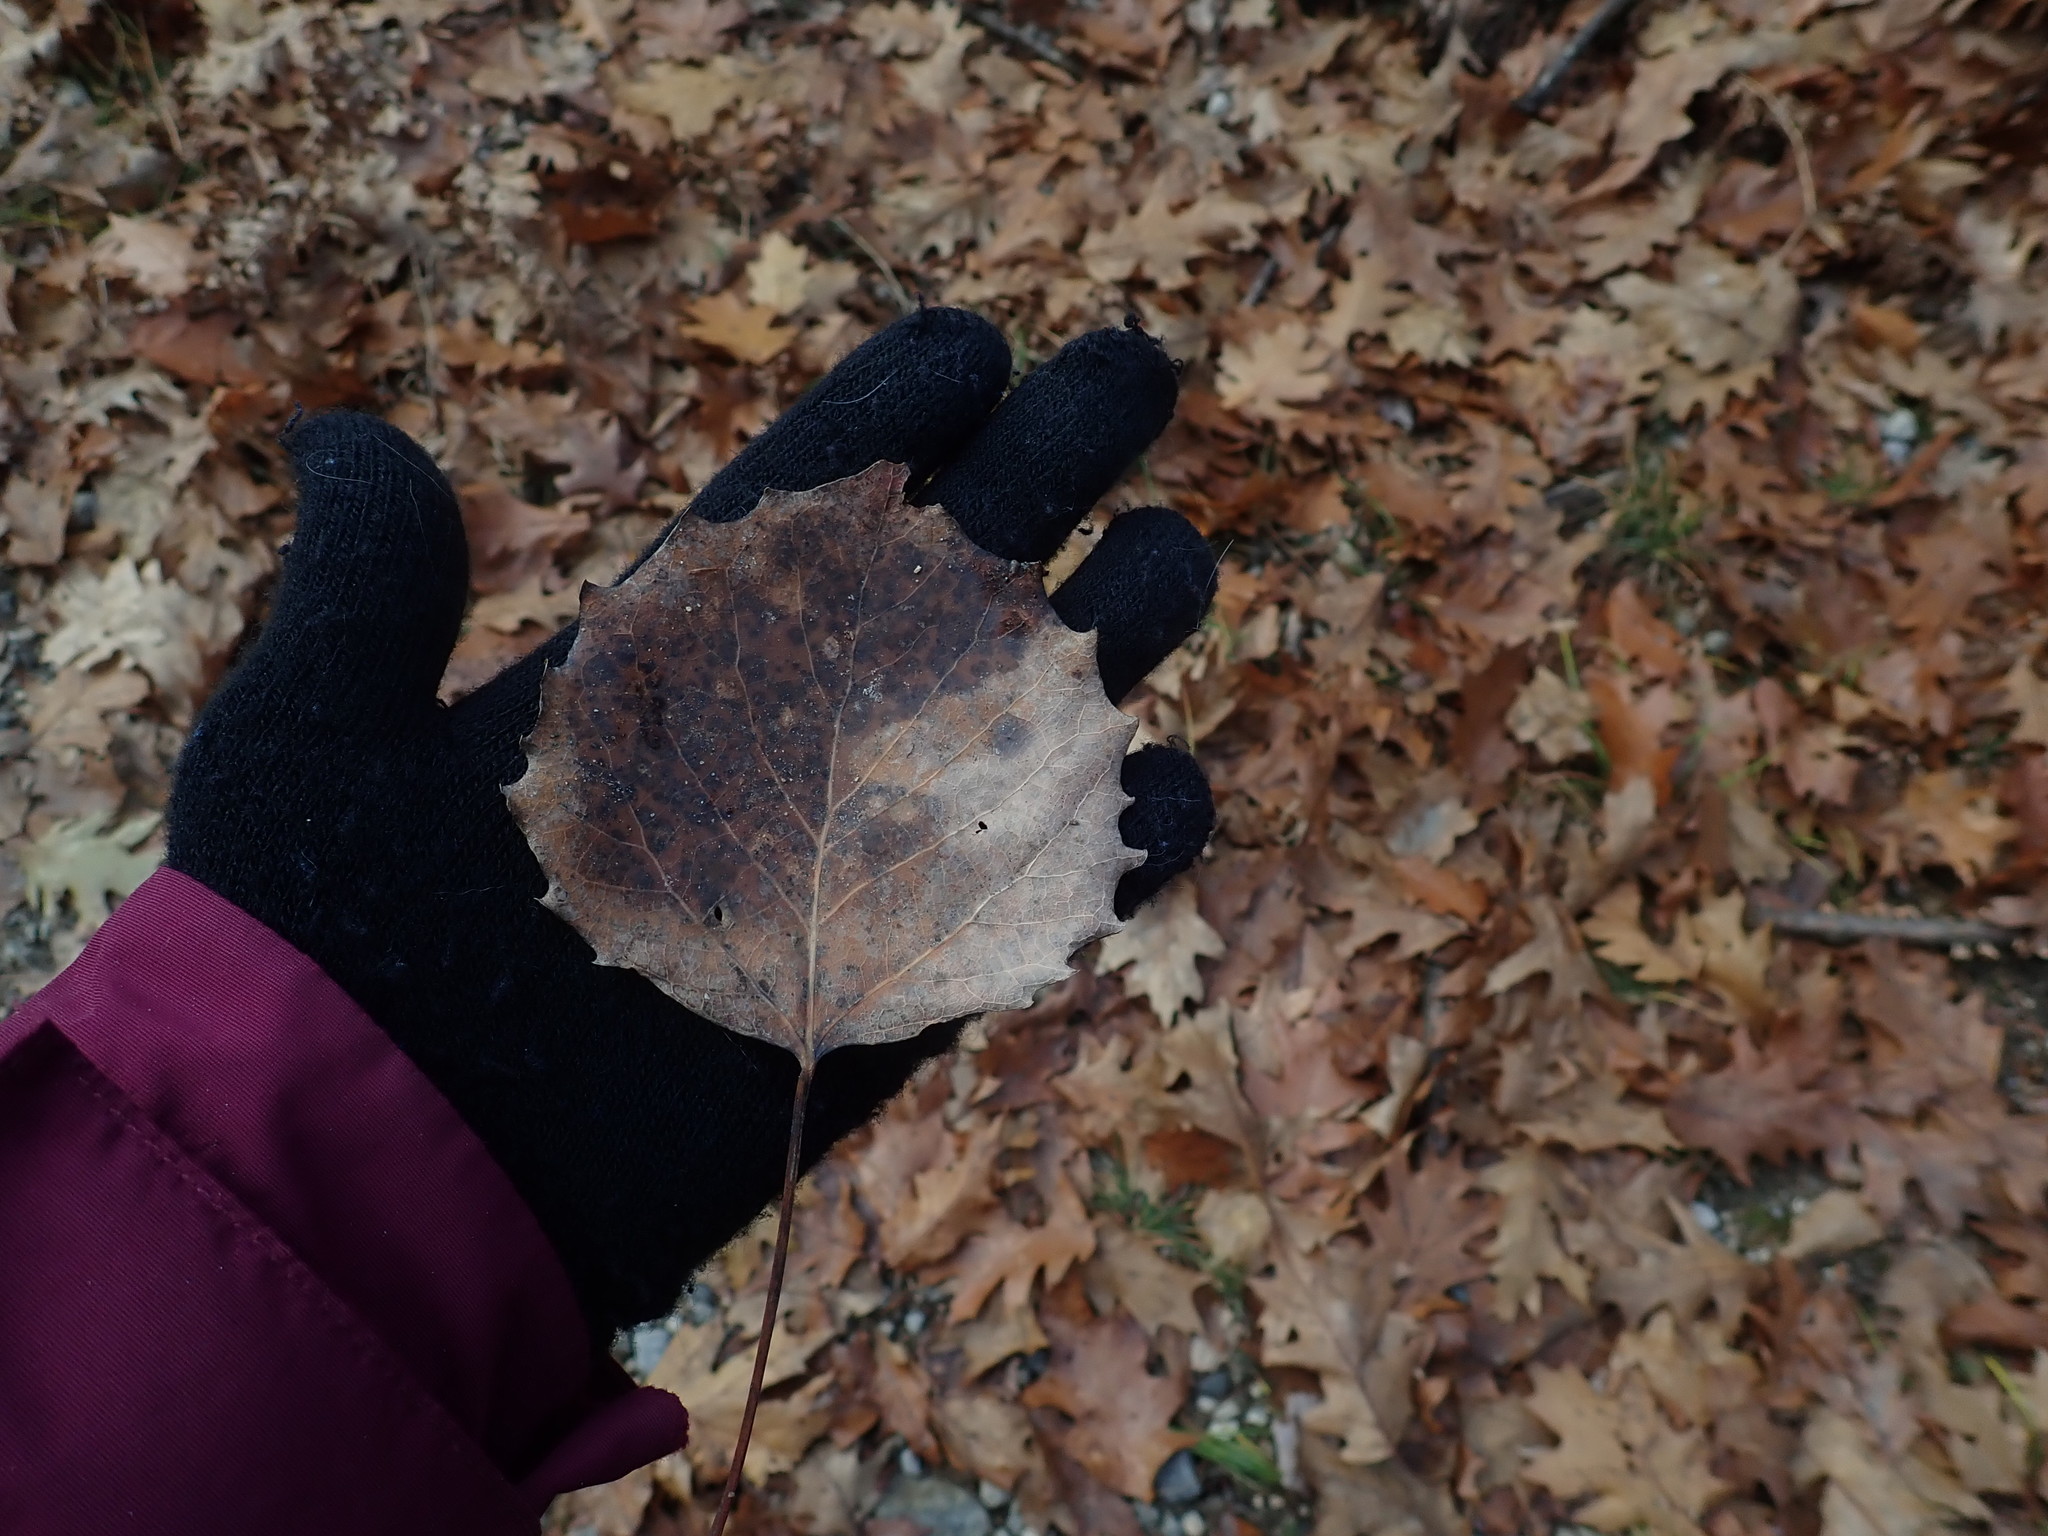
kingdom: Plantae
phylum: Tracheophyta
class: Magnoliopsida
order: Malpighiales
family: Salicaceae
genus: Populus
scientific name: Populus grandidentata
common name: Bigtooth aspen
